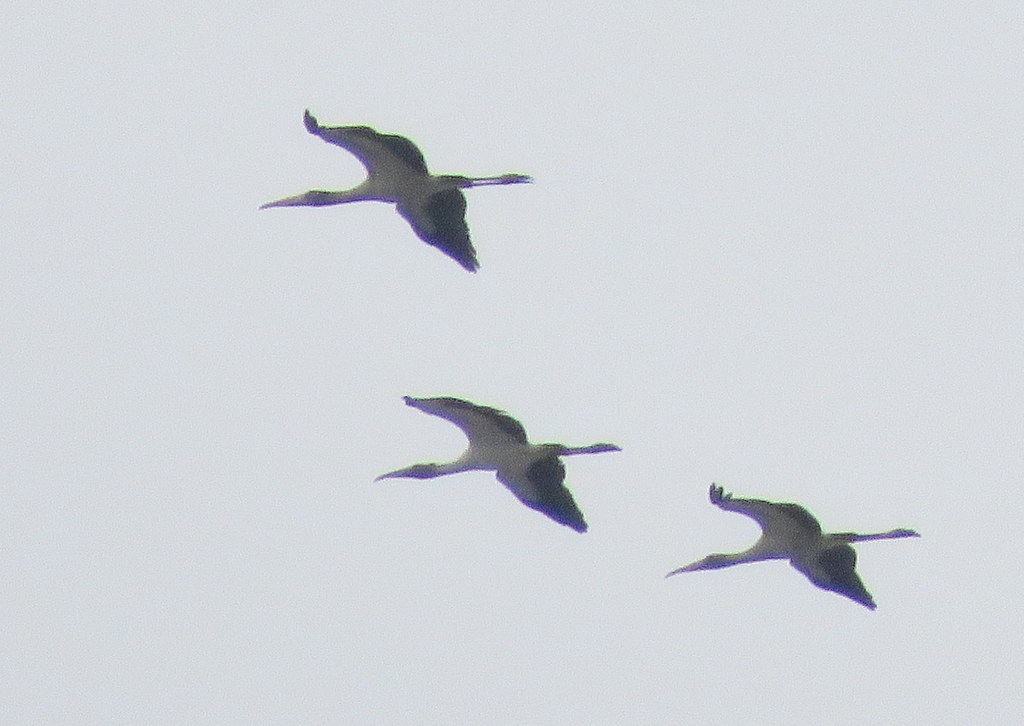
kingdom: Animalia
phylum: Chordata
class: Aves
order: Ciconiiformes
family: Ciconiidae
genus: Mycteria
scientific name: Mycteria americana
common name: Wood stork
